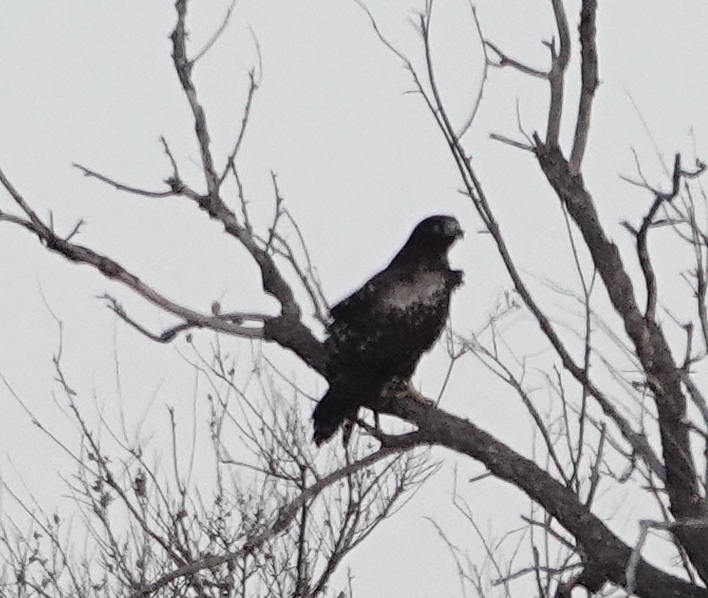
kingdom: Animalia
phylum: Chordata
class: Aves
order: Accipitriformes
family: Accipitridae
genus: Buteo
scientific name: Buteo jamaicensis
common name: Red-tailed hawk
